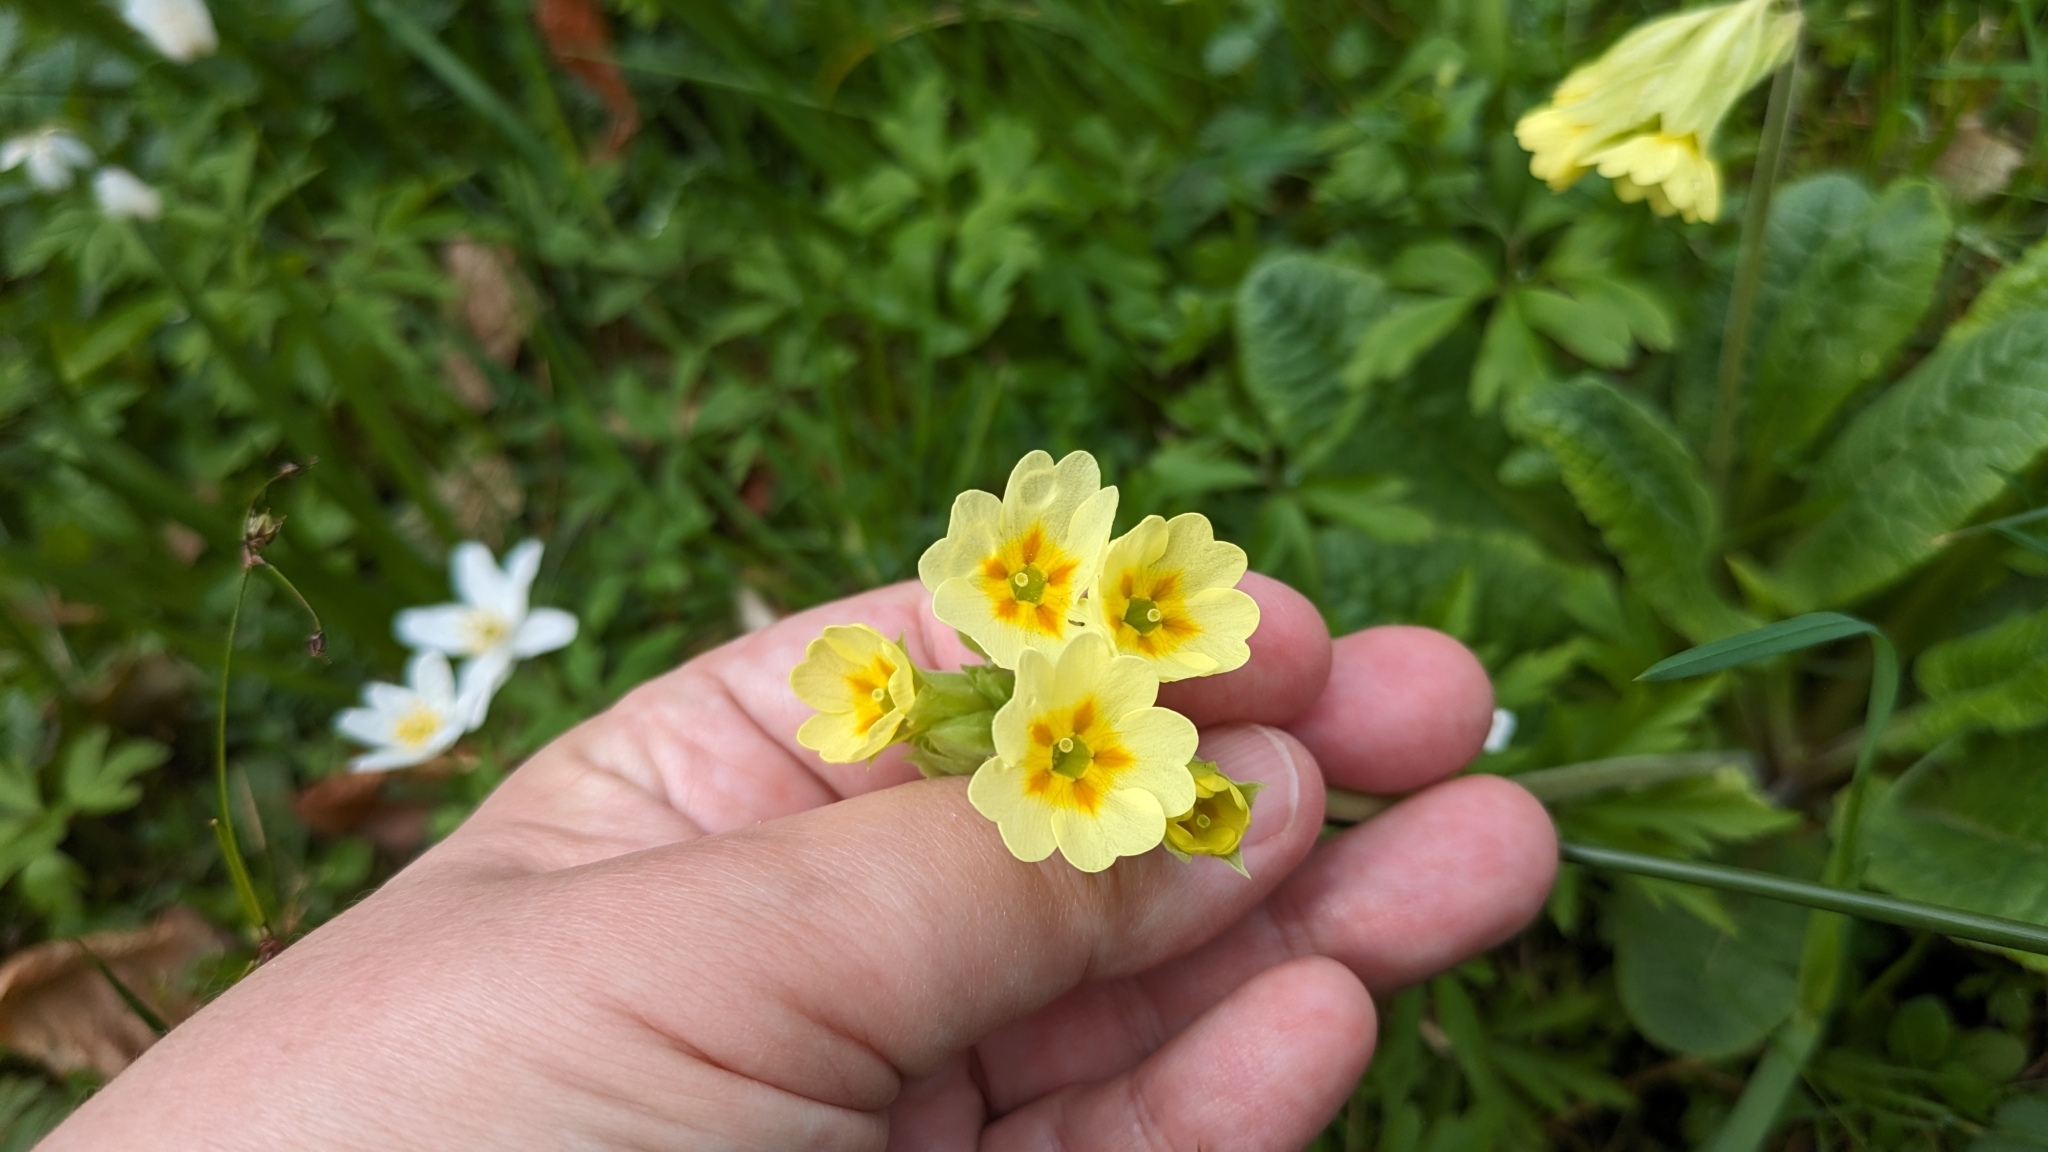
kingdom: Plantae
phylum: Tracheophyta
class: Magnoliopsida
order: Ericales
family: Primulaceae
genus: Primula
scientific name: Primula elatior
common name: Oxlip
